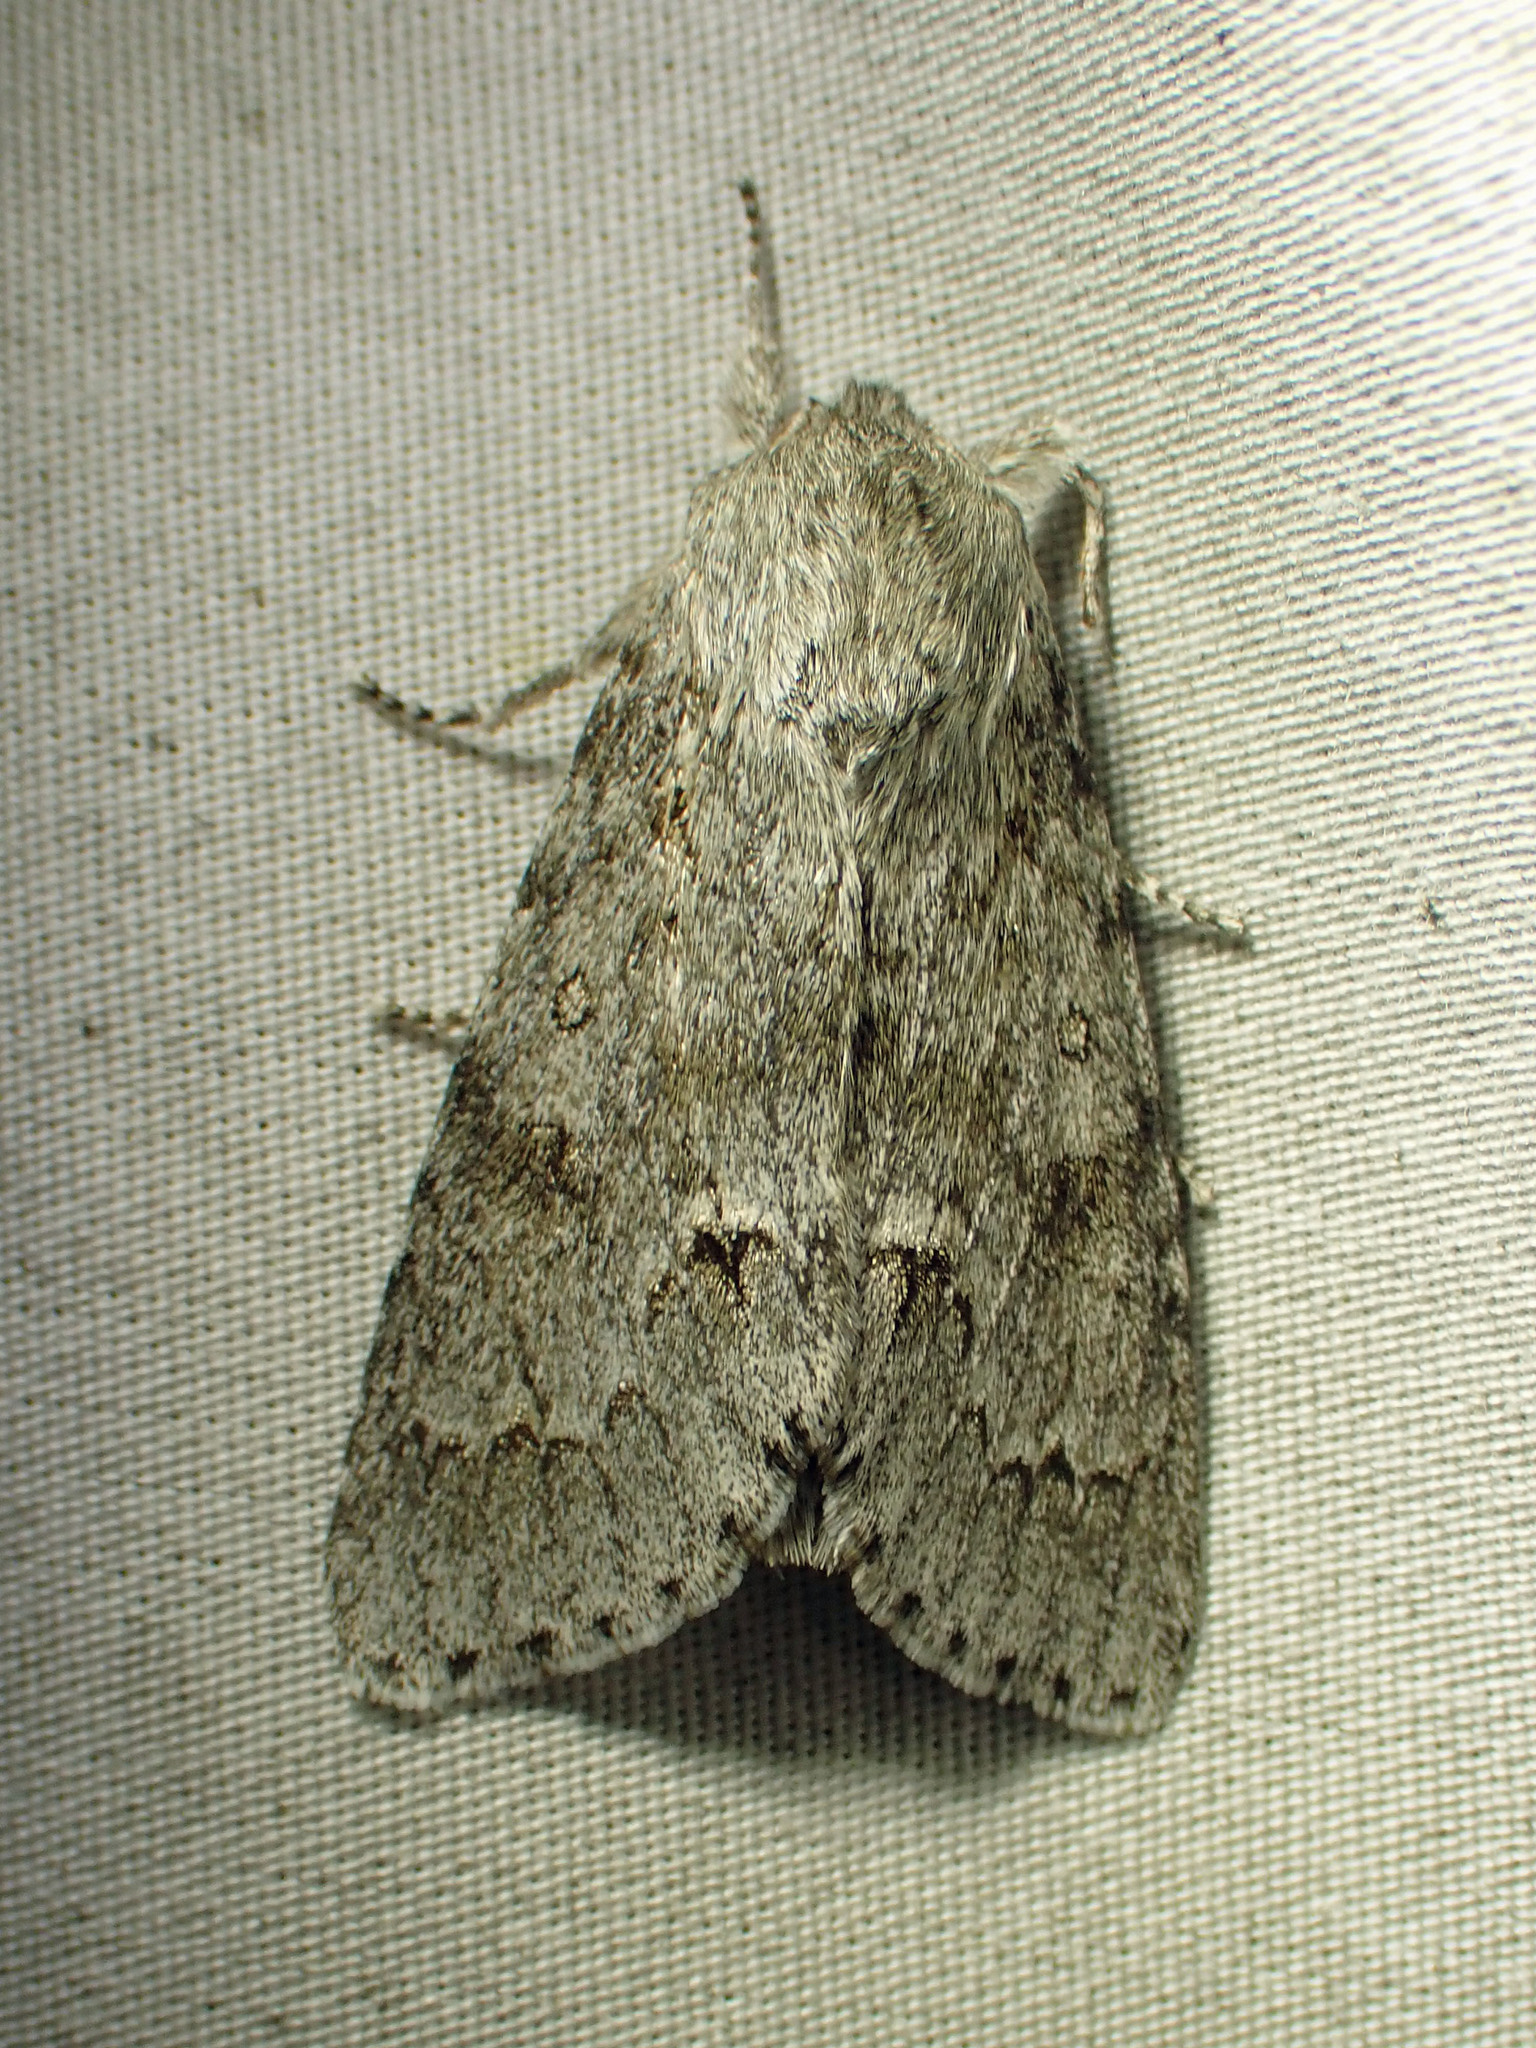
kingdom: Animalia
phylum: Arthropoda
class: Insecta
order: Lepidoptera
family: Noctuidae
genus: Acronicta
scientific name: Acronicta insita
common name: Large gray dagger
